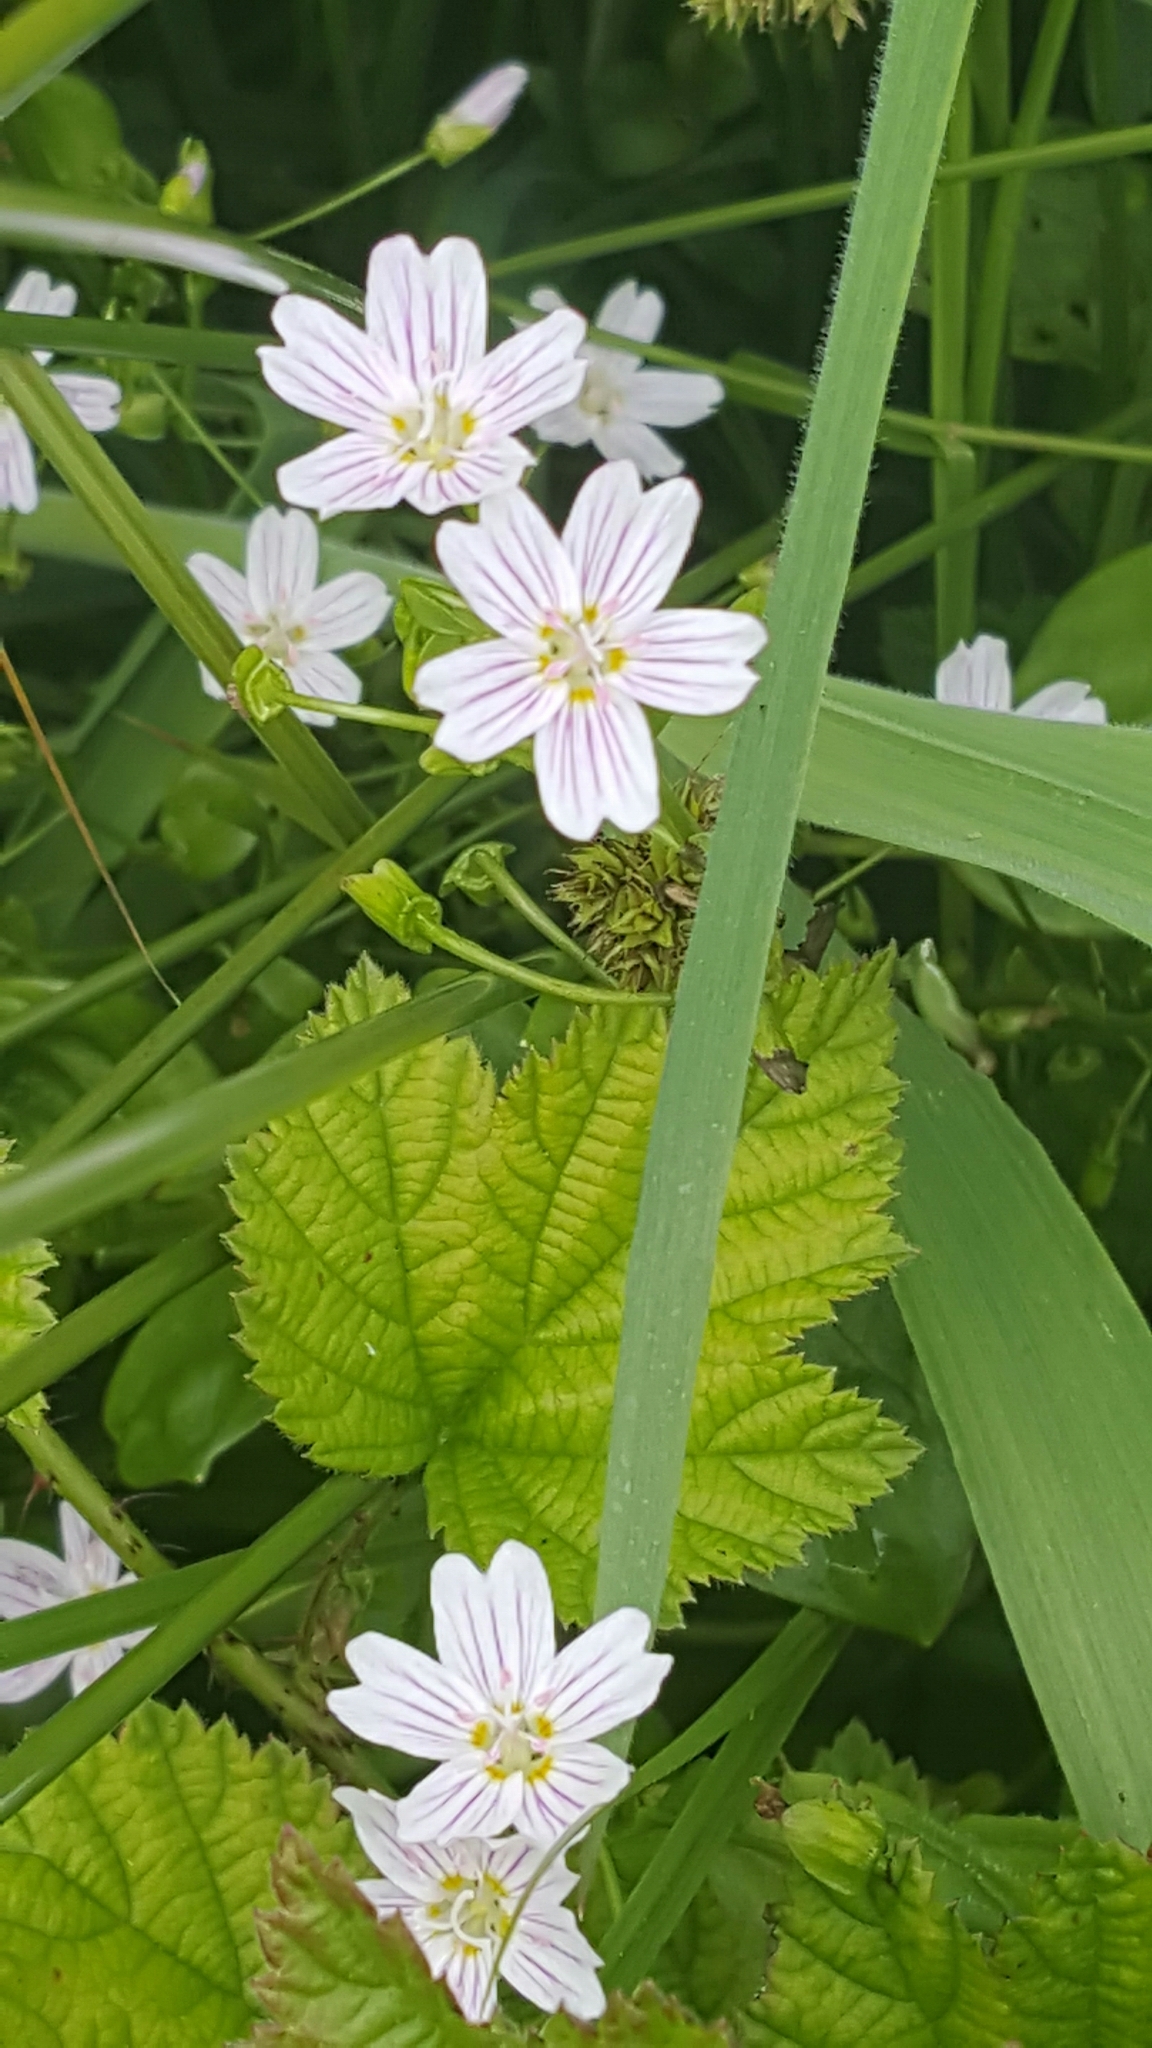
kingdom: Plantae
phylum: Tracheophyta
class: Magnoliopsida
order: Caryophyllales
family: Montiaceae
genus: Claytonia
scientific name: Claytonia sibirica
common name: Pink purslane
